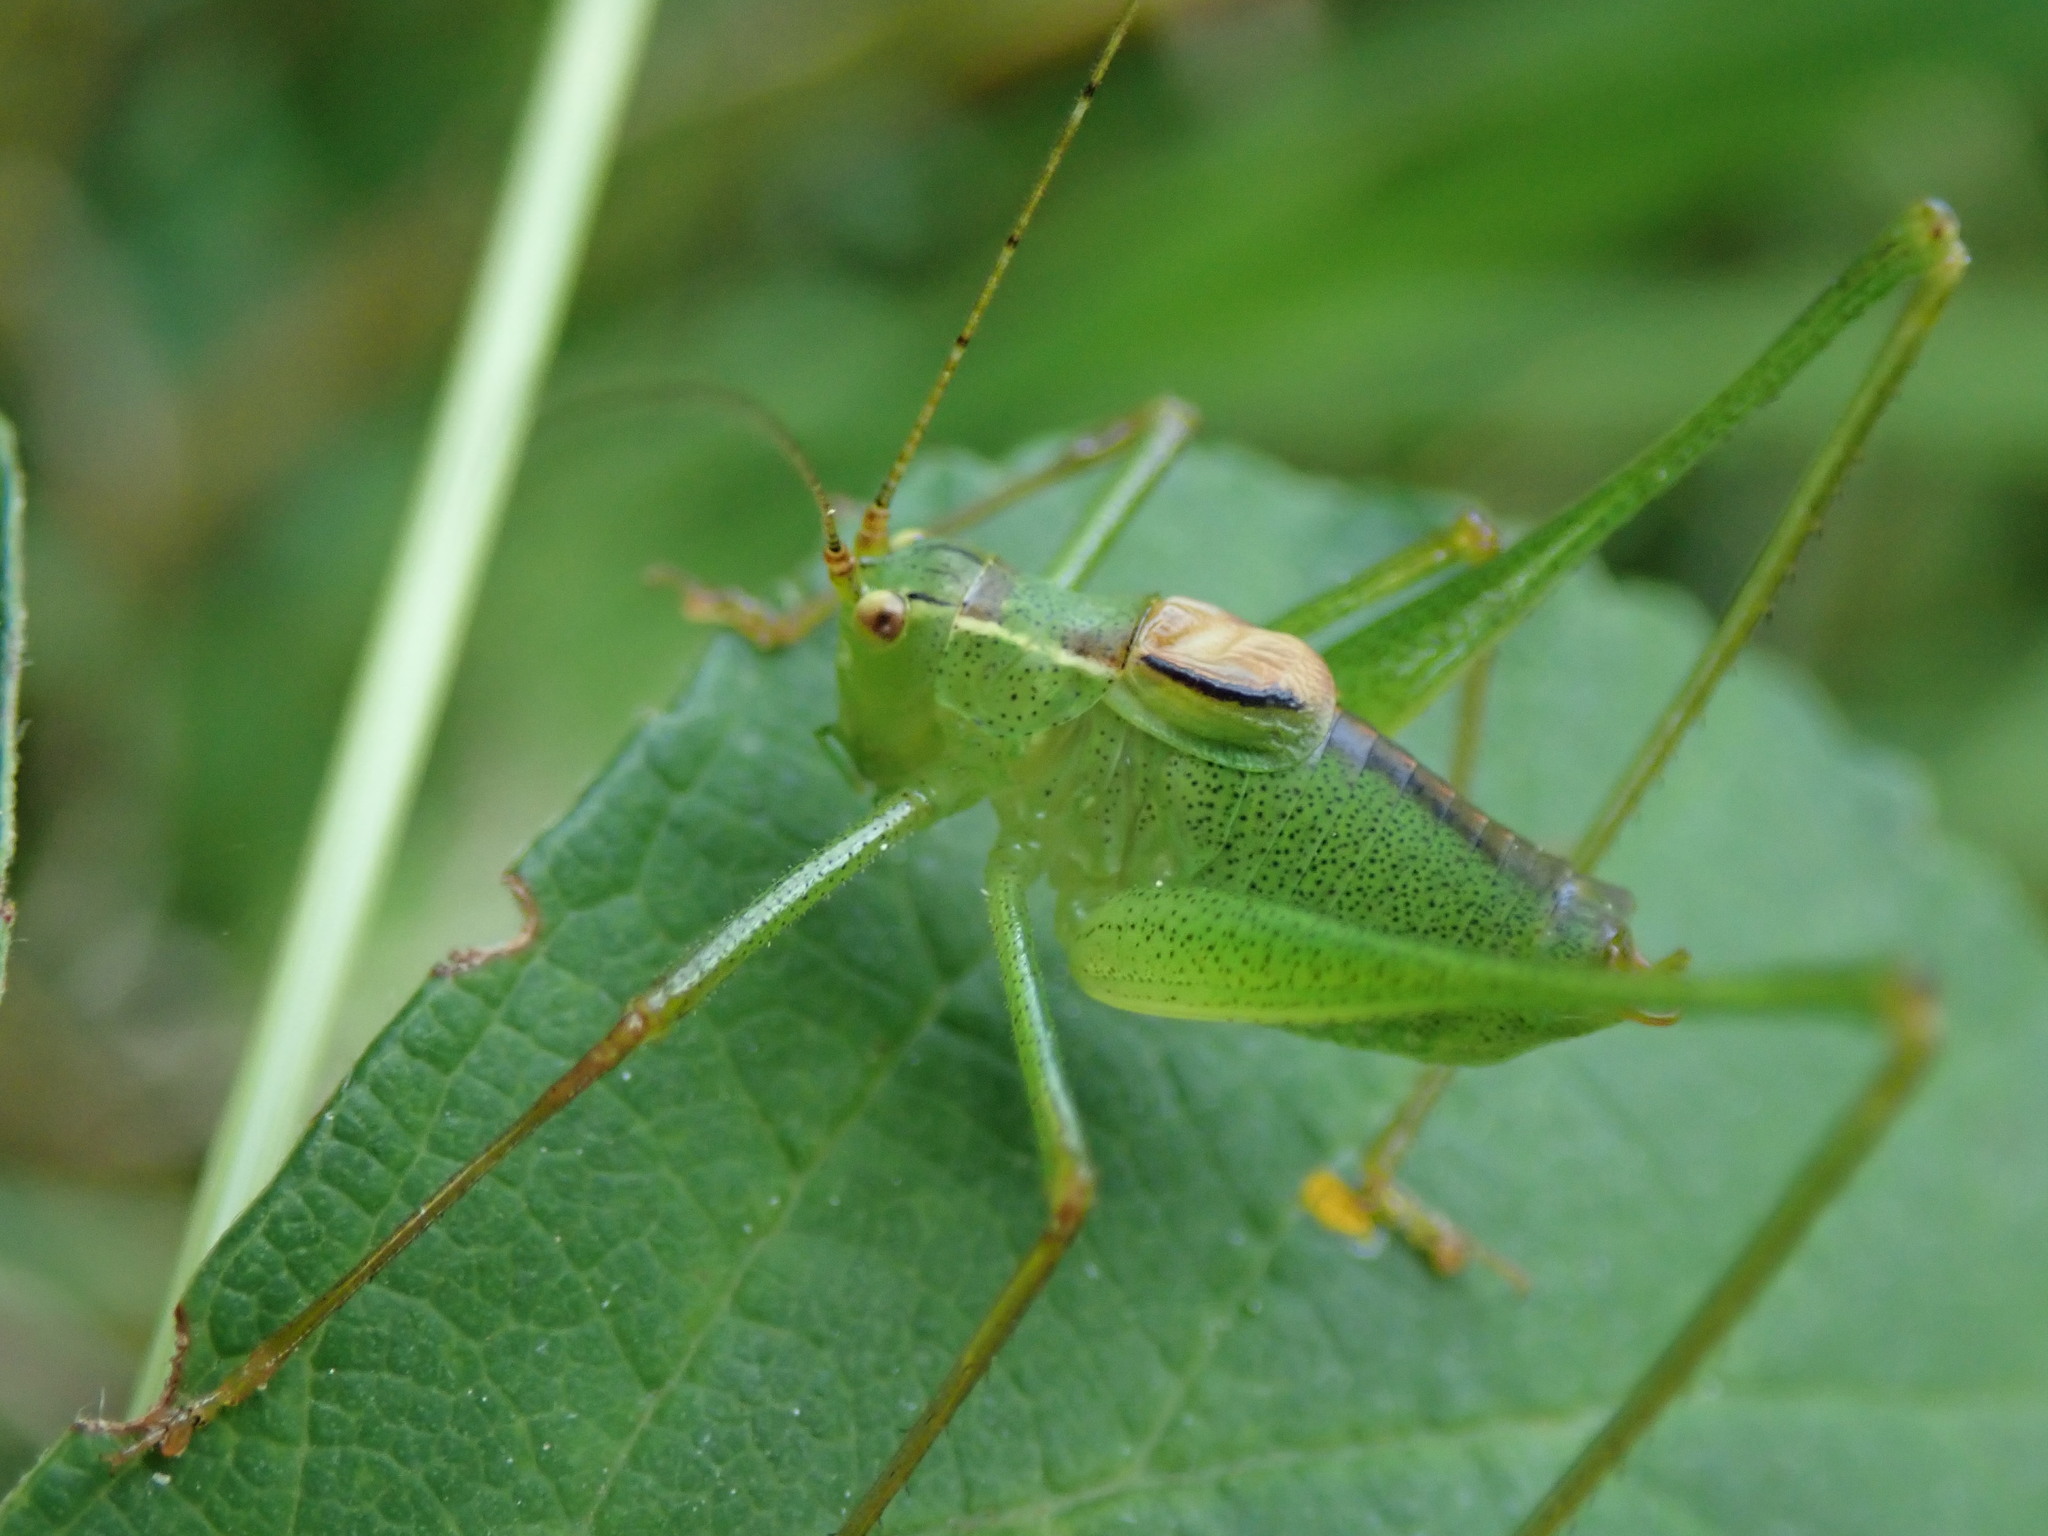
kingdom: Animalia
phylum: Arthropoda
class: Insecta
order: Orthoptera
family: Tettigoniidae
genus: Leptophyes
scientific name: Leptophyes punctatissima
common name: Speckled bush-cricket
